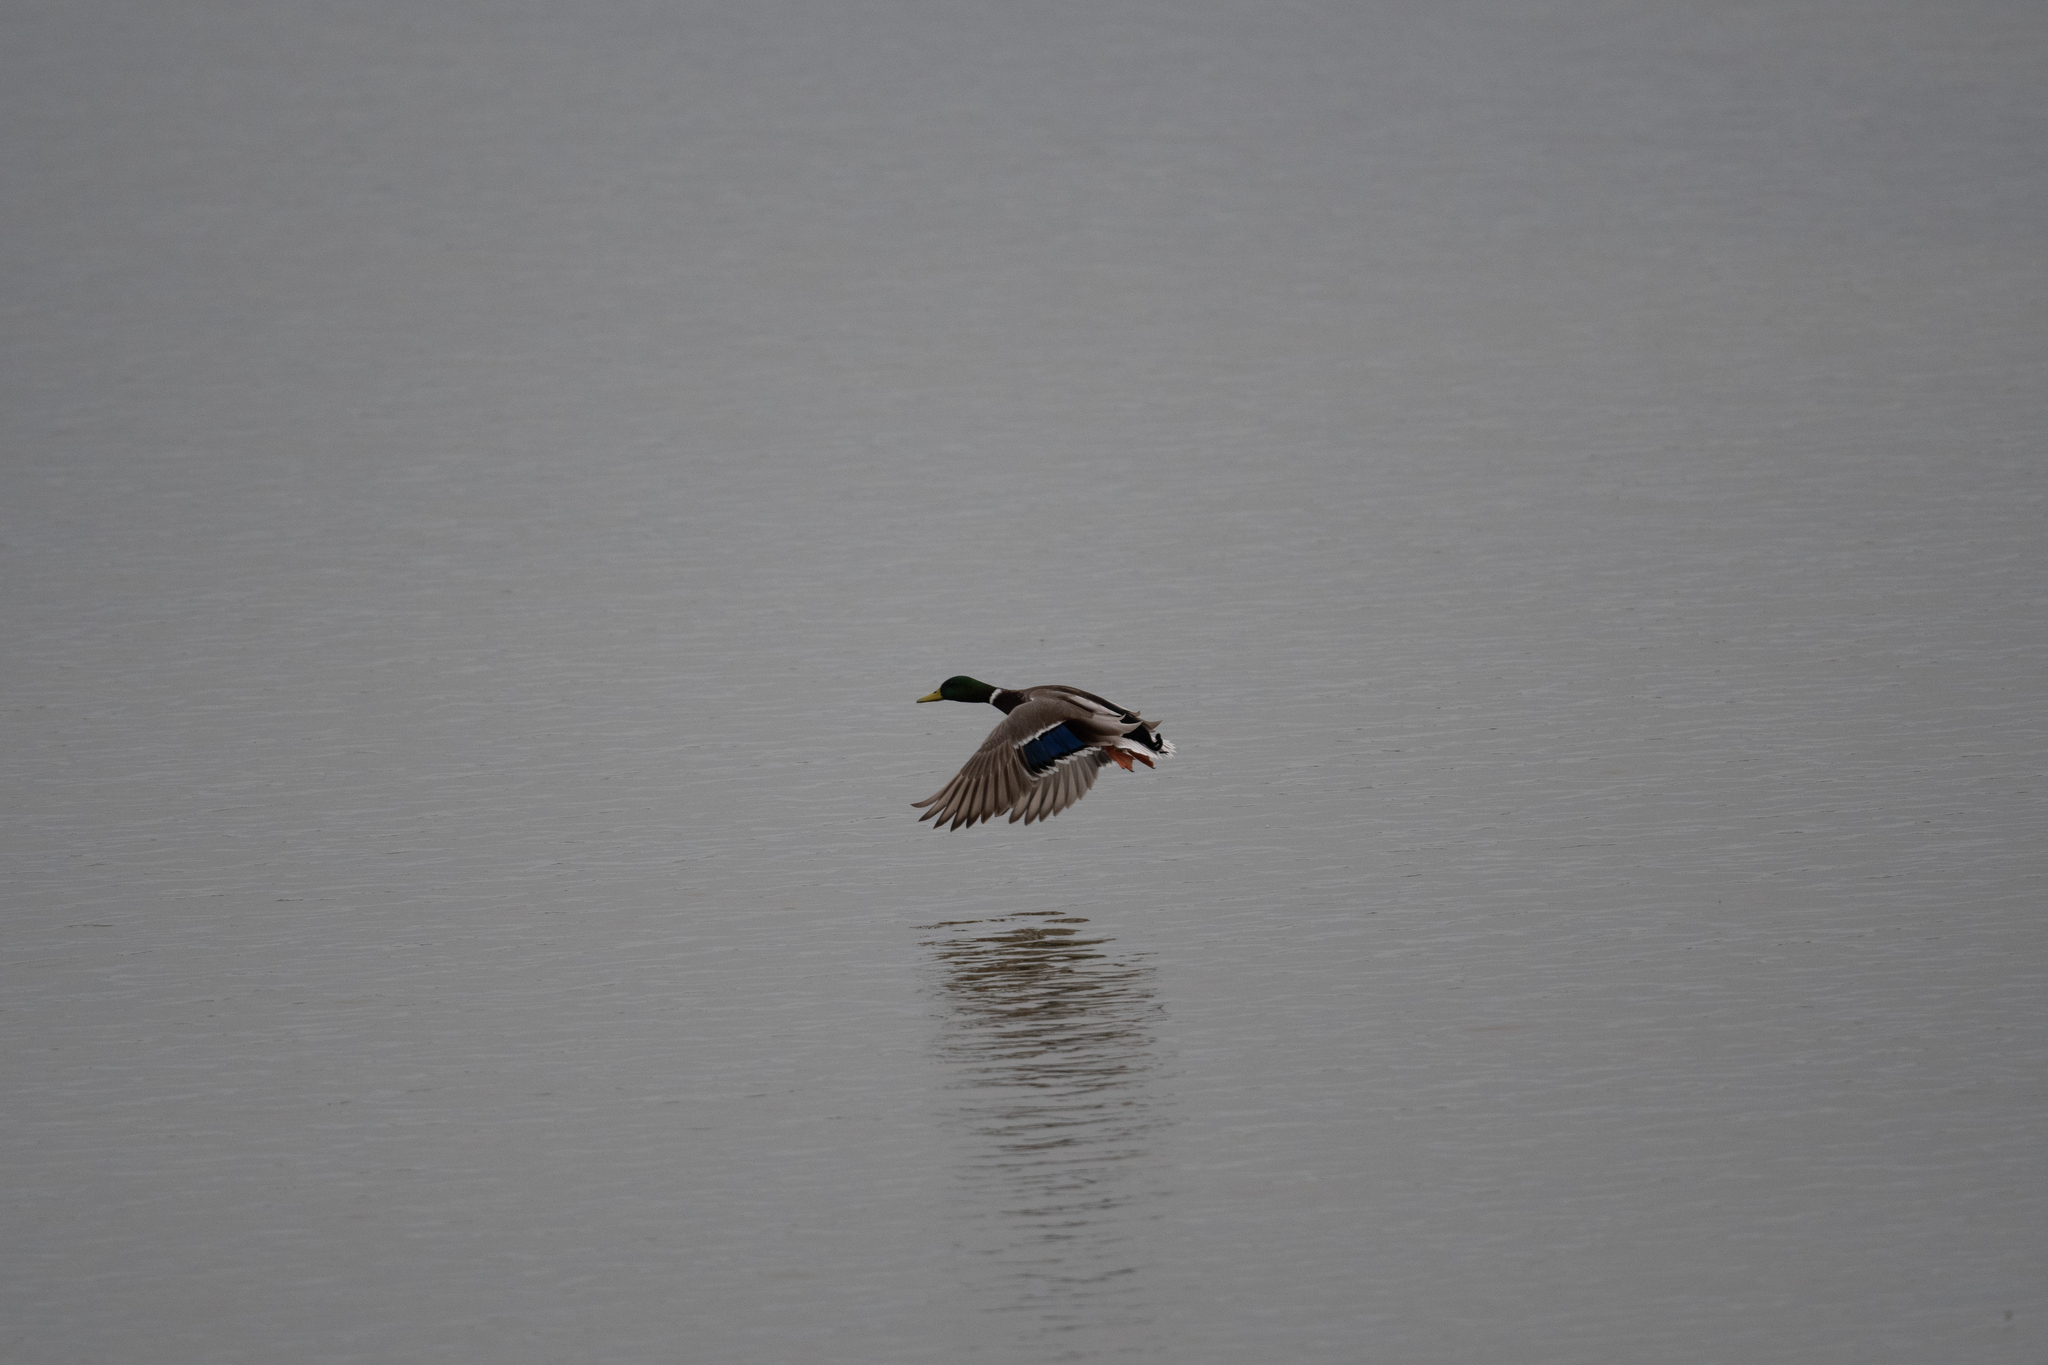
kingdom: Animalia
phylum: Chordata
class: Aves
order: Anseriformes
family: Anatidae
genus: Anas
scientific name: Anas platyrhynchos
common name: Mallard
